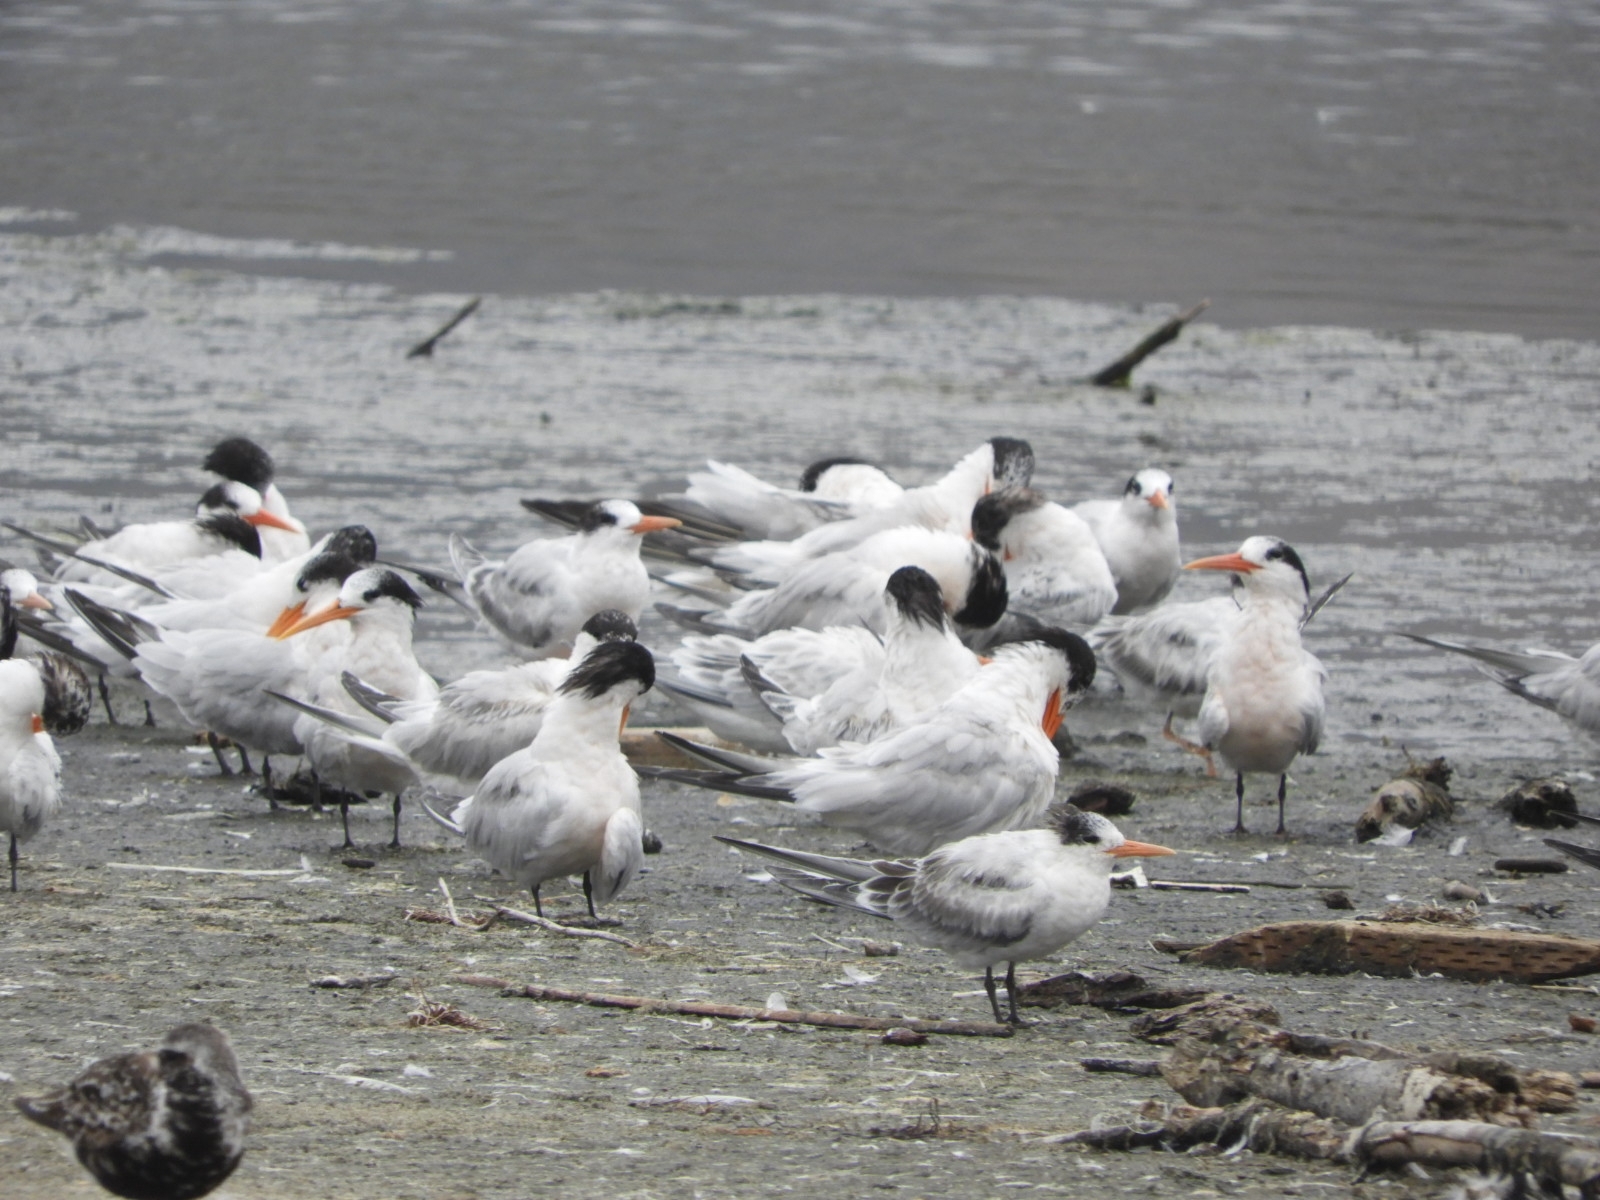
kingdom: Animalia
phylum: Chordata
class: Aves
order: Charadriiformes
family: Laridae
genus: Thalasseus
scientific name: Thalasseus elegans
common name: Elegant tern
